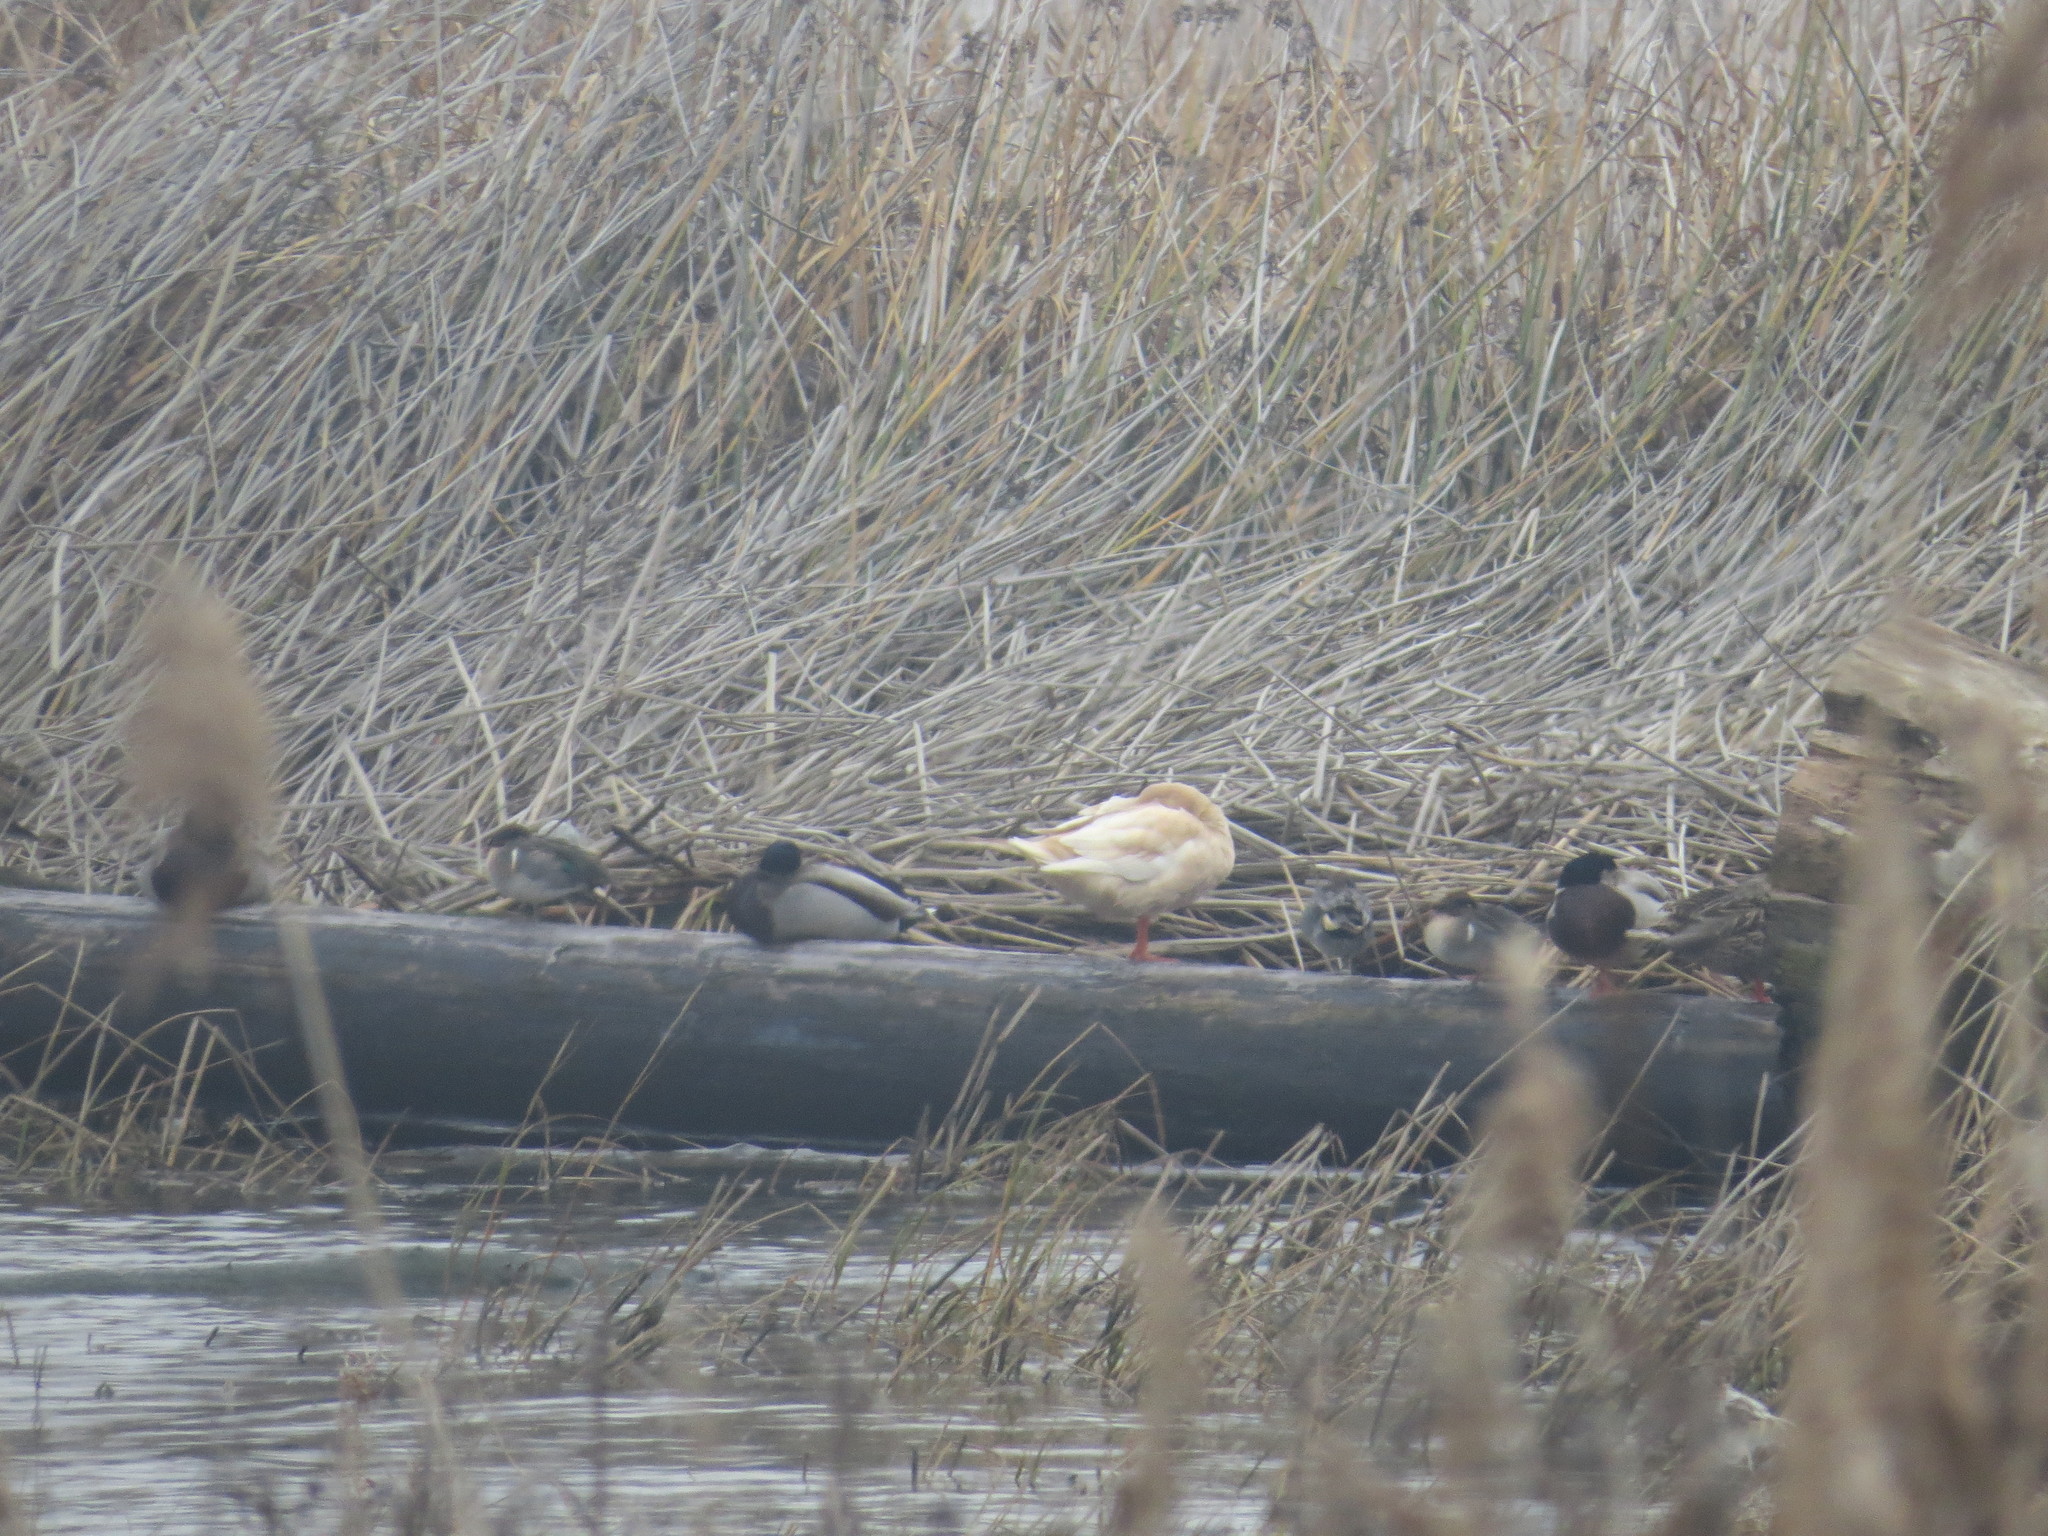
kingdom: Animalia
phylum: Chordata
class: Aves
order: Anseriformes
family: Anatidae
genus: Anas
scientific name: Anas platyrhynchos
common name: Mallard
